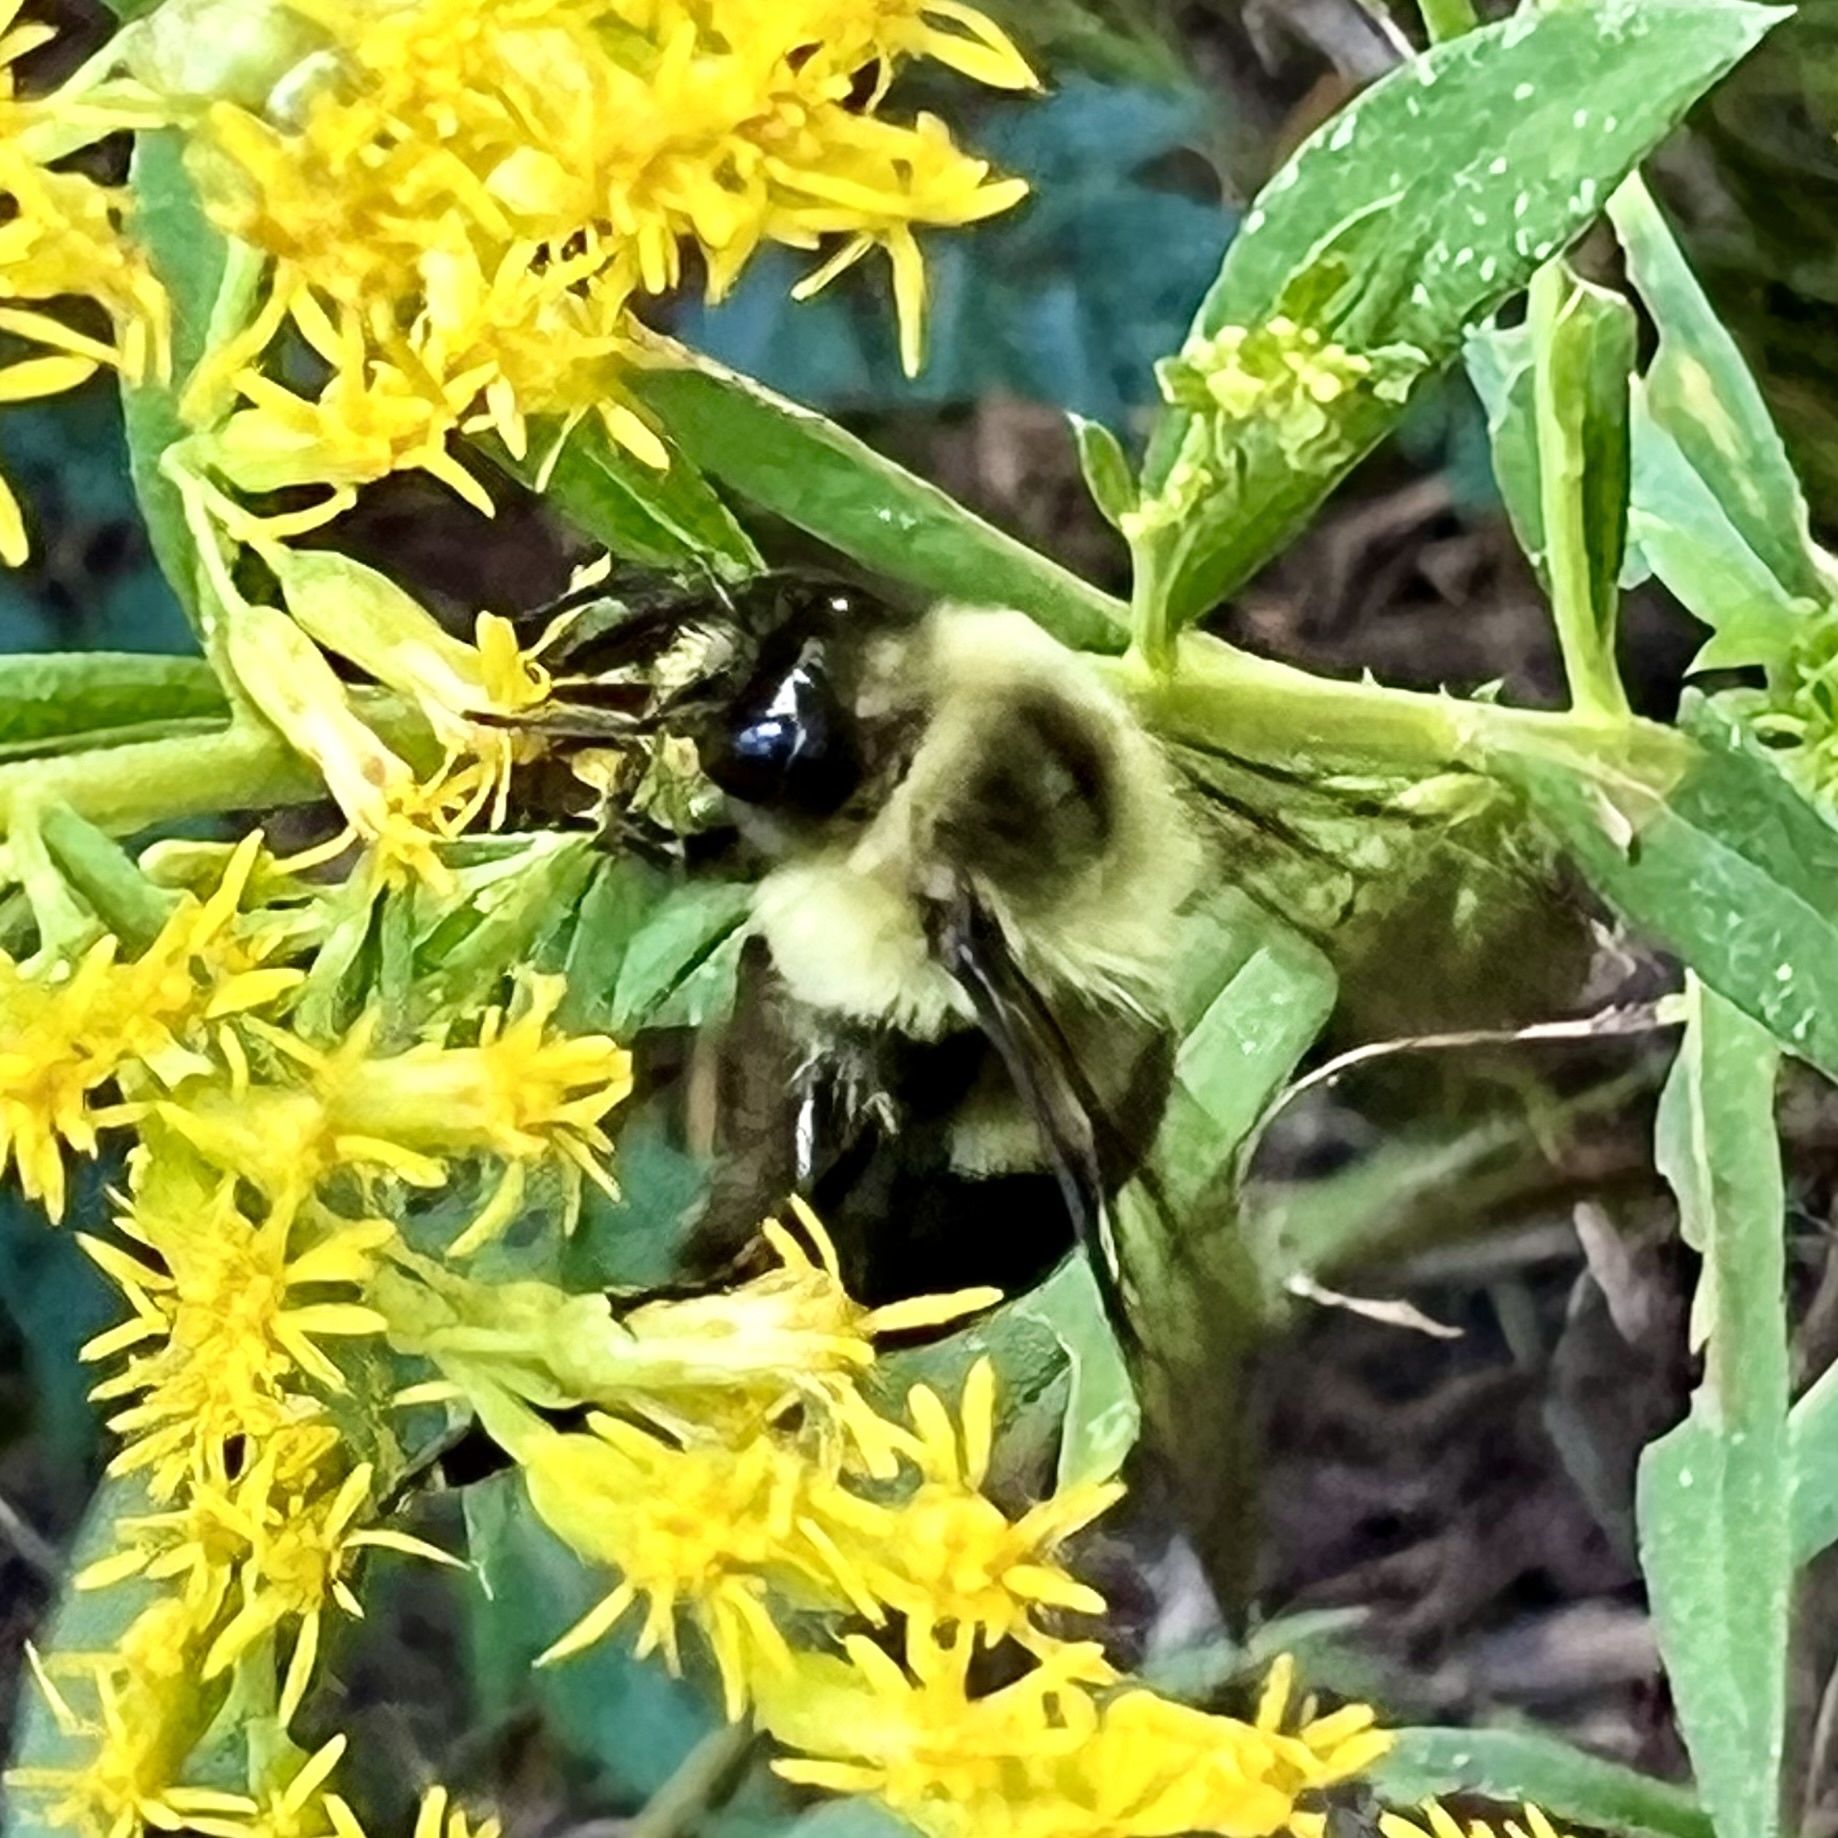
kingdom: Animalia
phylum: Arthropoda
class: Insecta
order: Hymenoptera
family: Apidae
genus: Bombus
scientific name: Bombus impatiens
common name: Common eastern bumble bee
